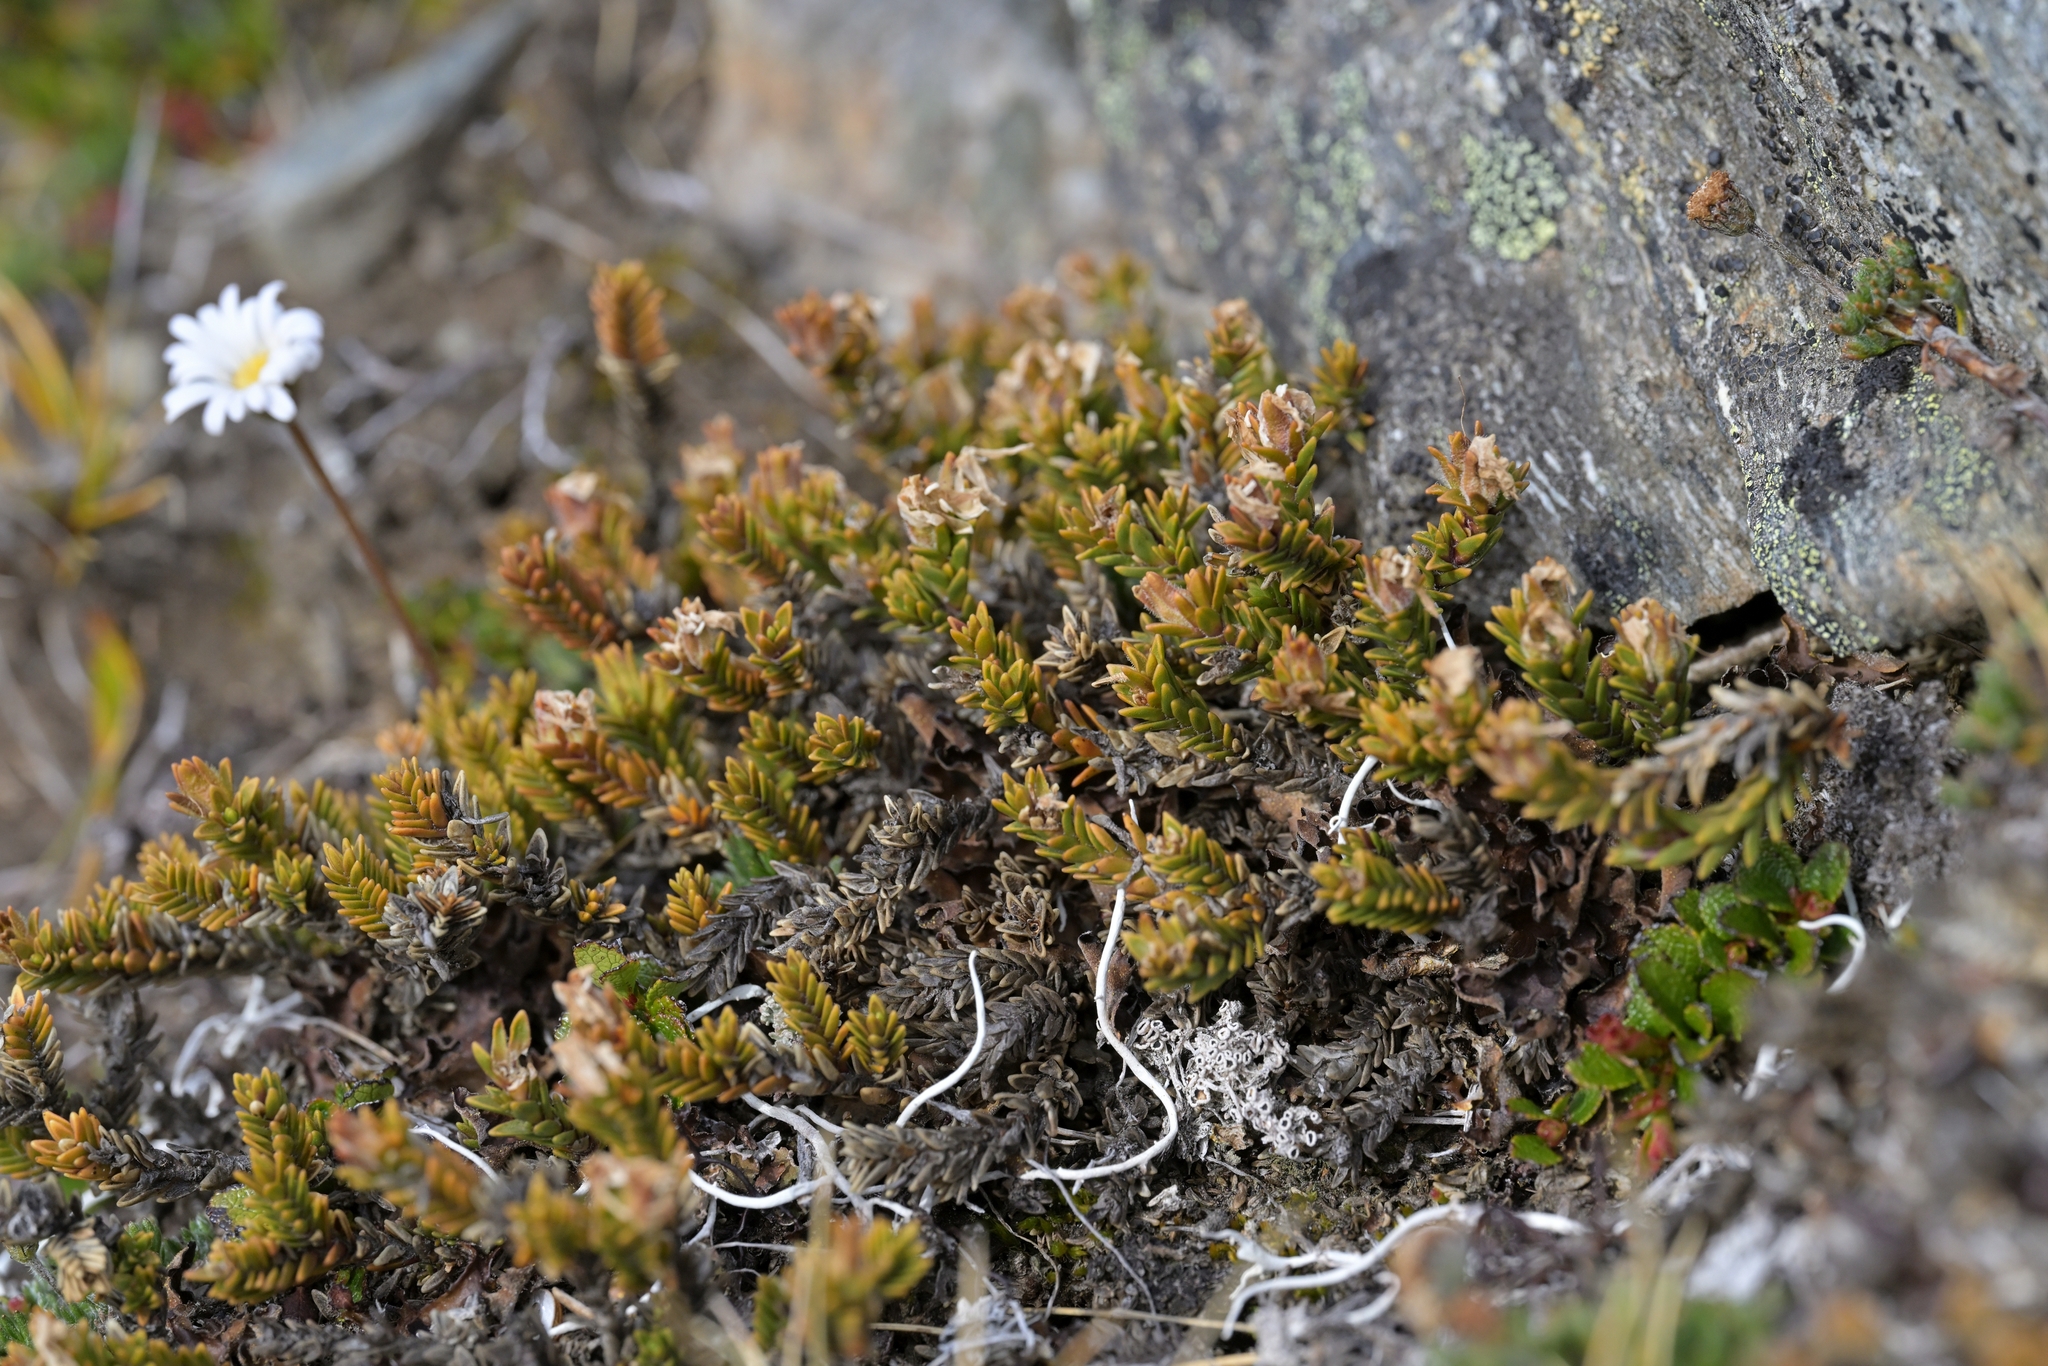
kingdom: Plantae
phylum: Tracheophyta
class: Magnoliopsida
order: Lamiales
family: Plantaginaceae
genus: Veronica
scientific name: Veronica densifolia
